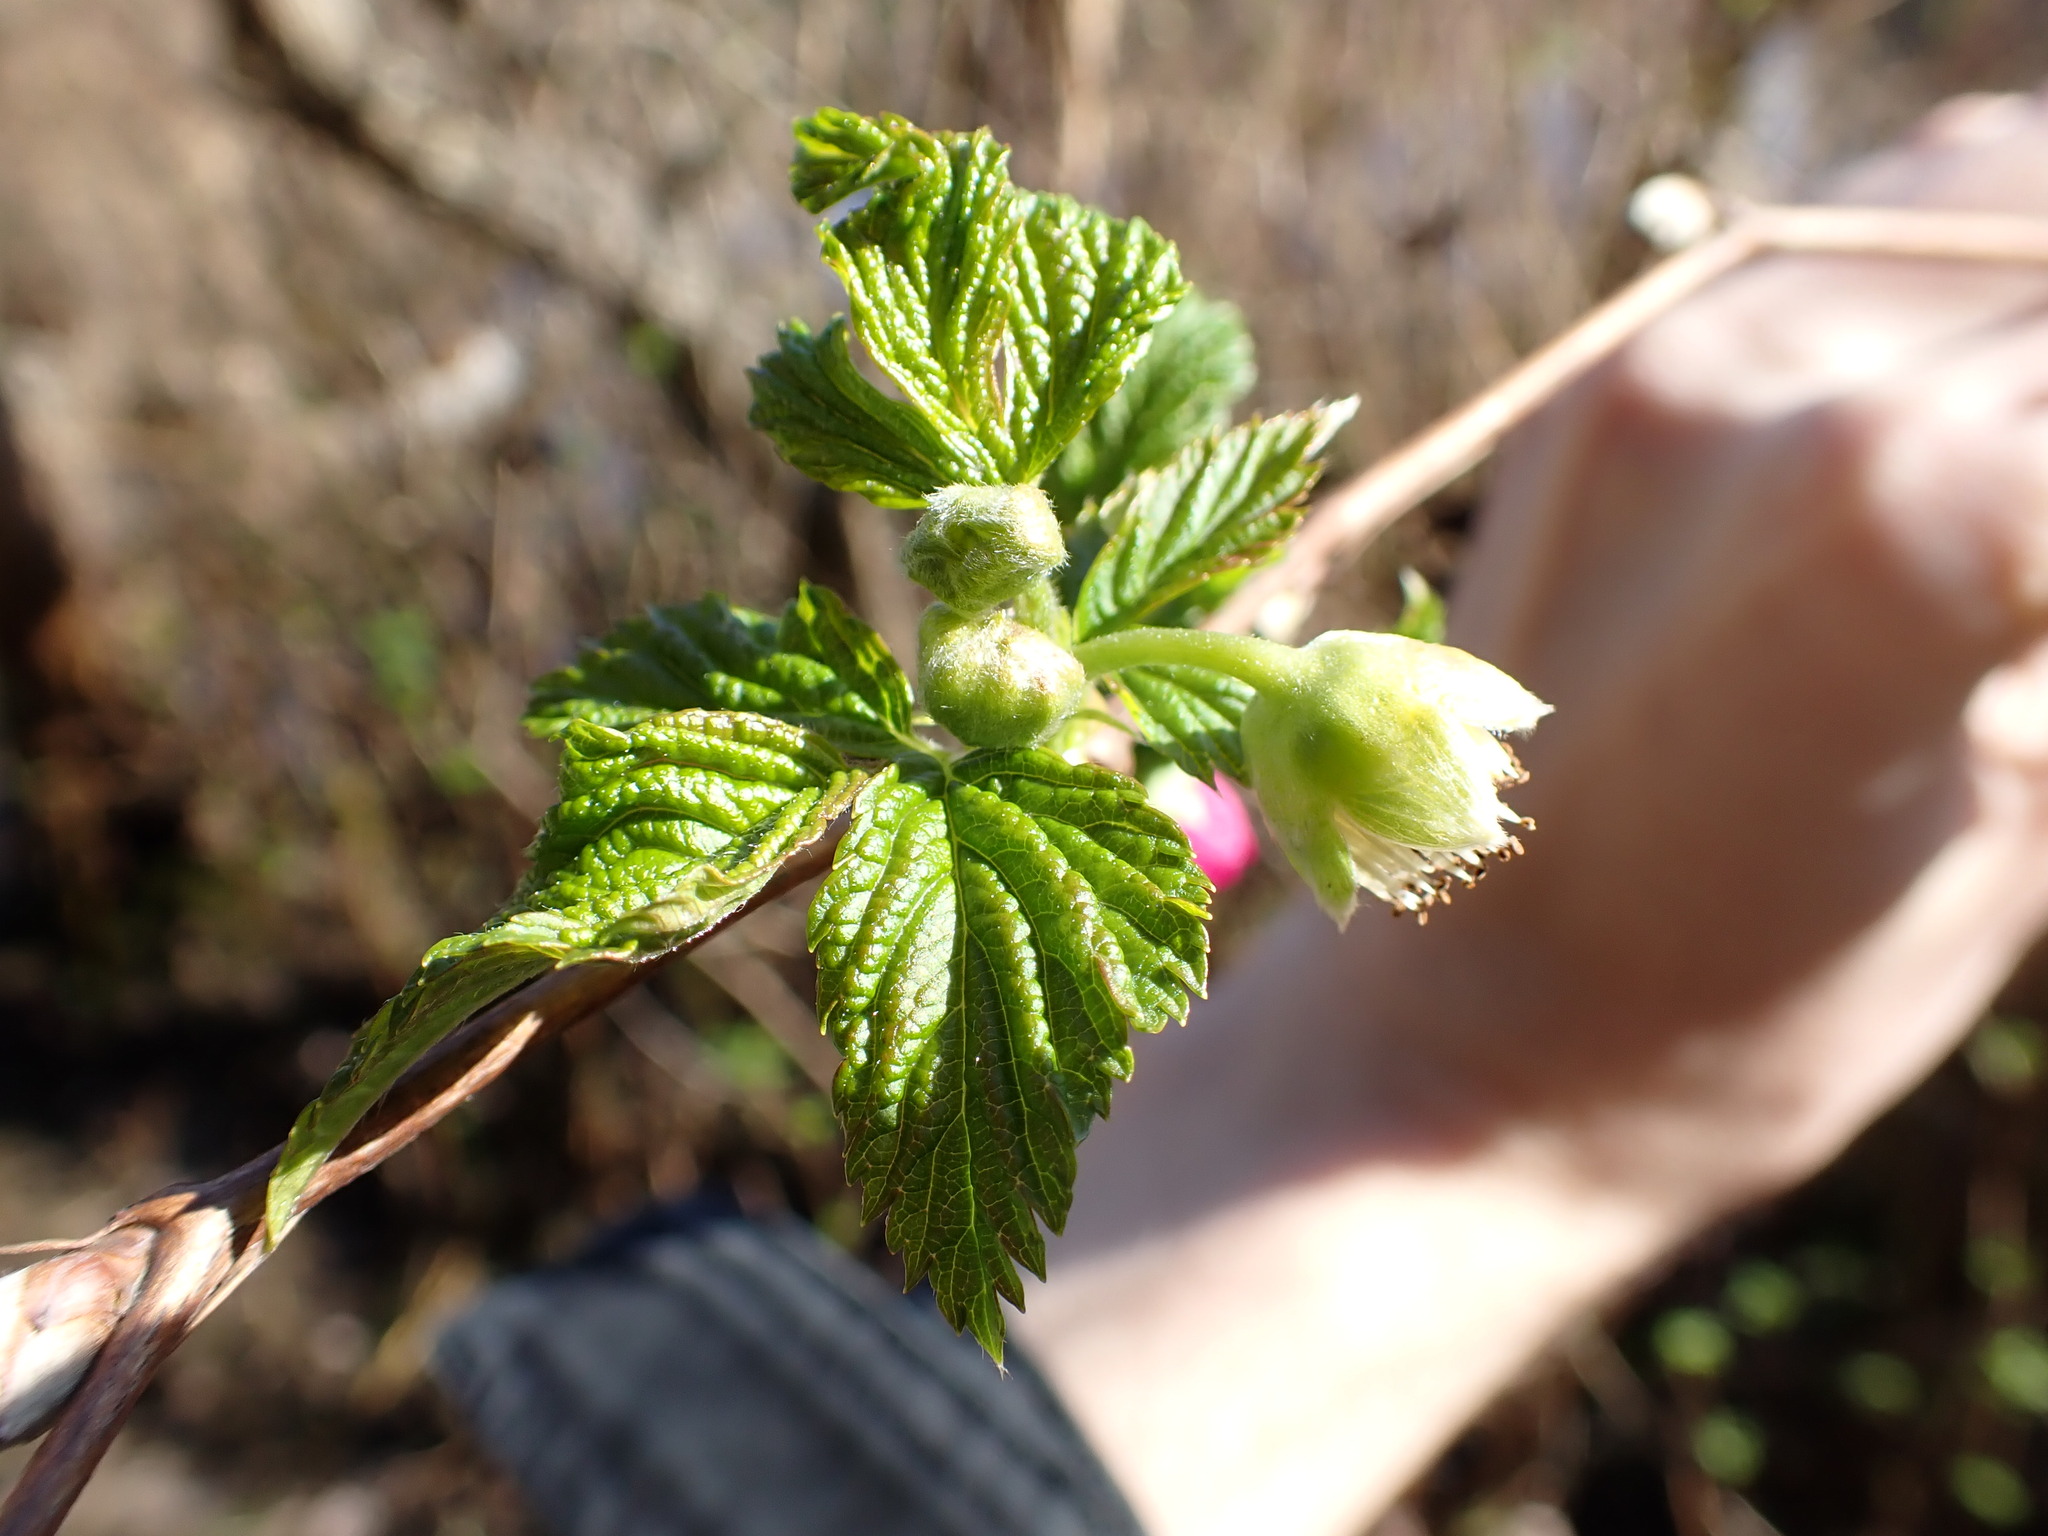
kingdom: Plantae
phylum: Tracheophyta
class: Magnoliopsida
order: Rosales
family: Rosaceae
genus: Rubus
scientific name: Rubus spectabilis
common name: Salmonberry
